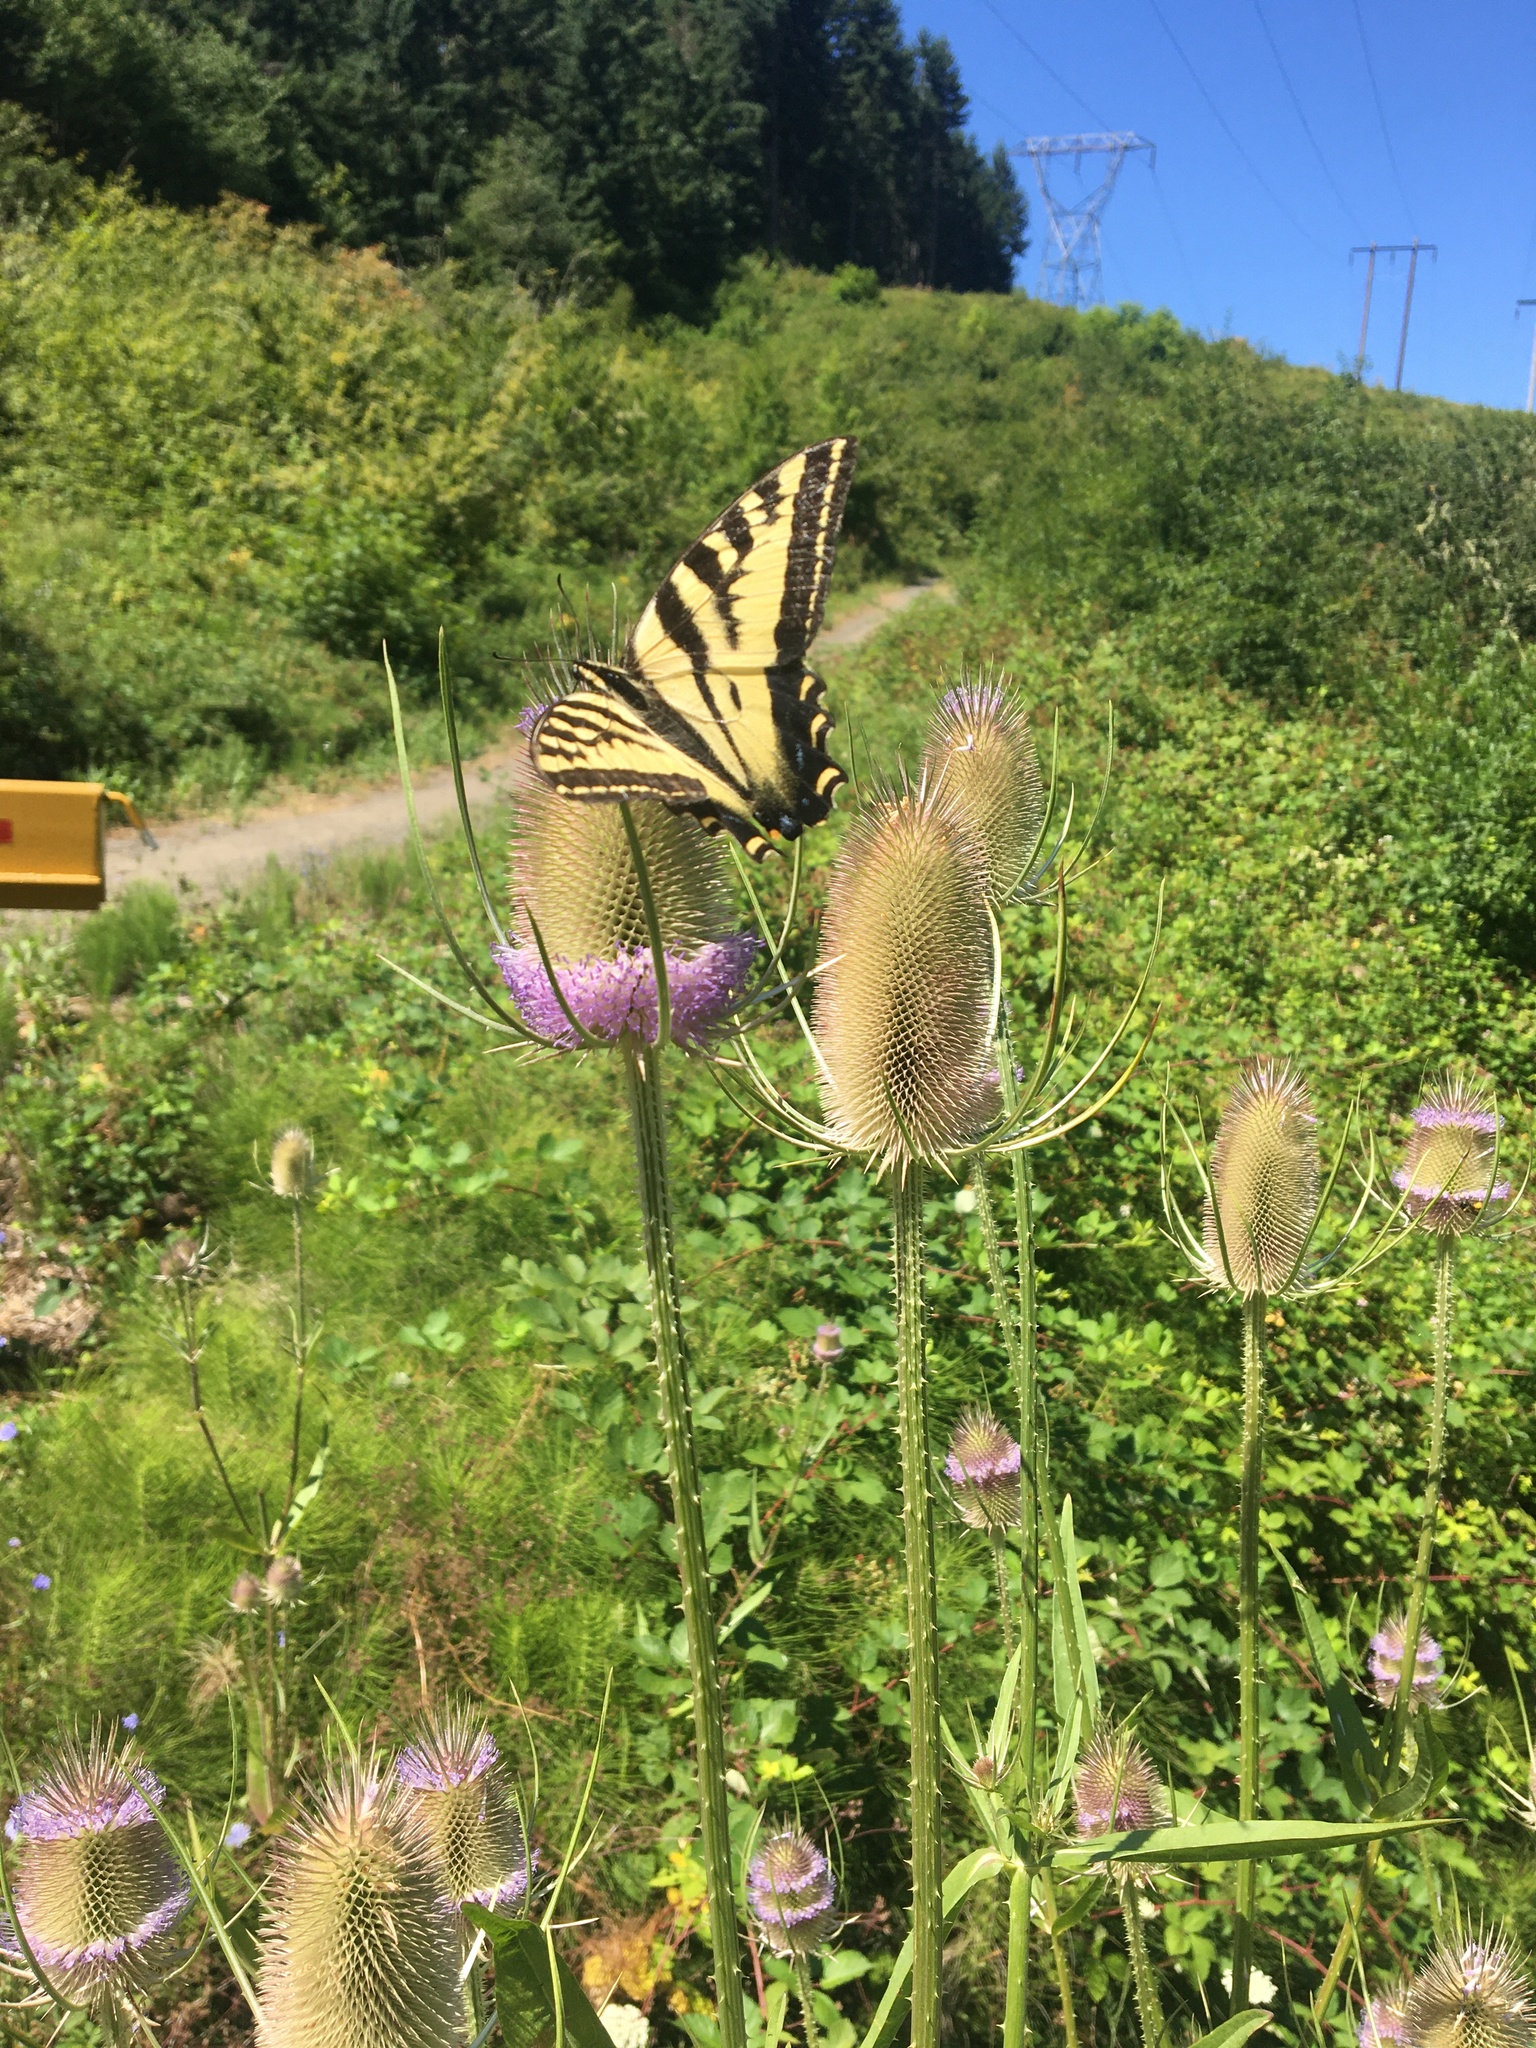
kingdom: Animalia
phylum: Arthropoda
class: Insecta
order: Lepidoptera
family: Papilionidae
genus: Papilio
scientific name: Papilio rutulus
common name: Western tiger swallowtail
